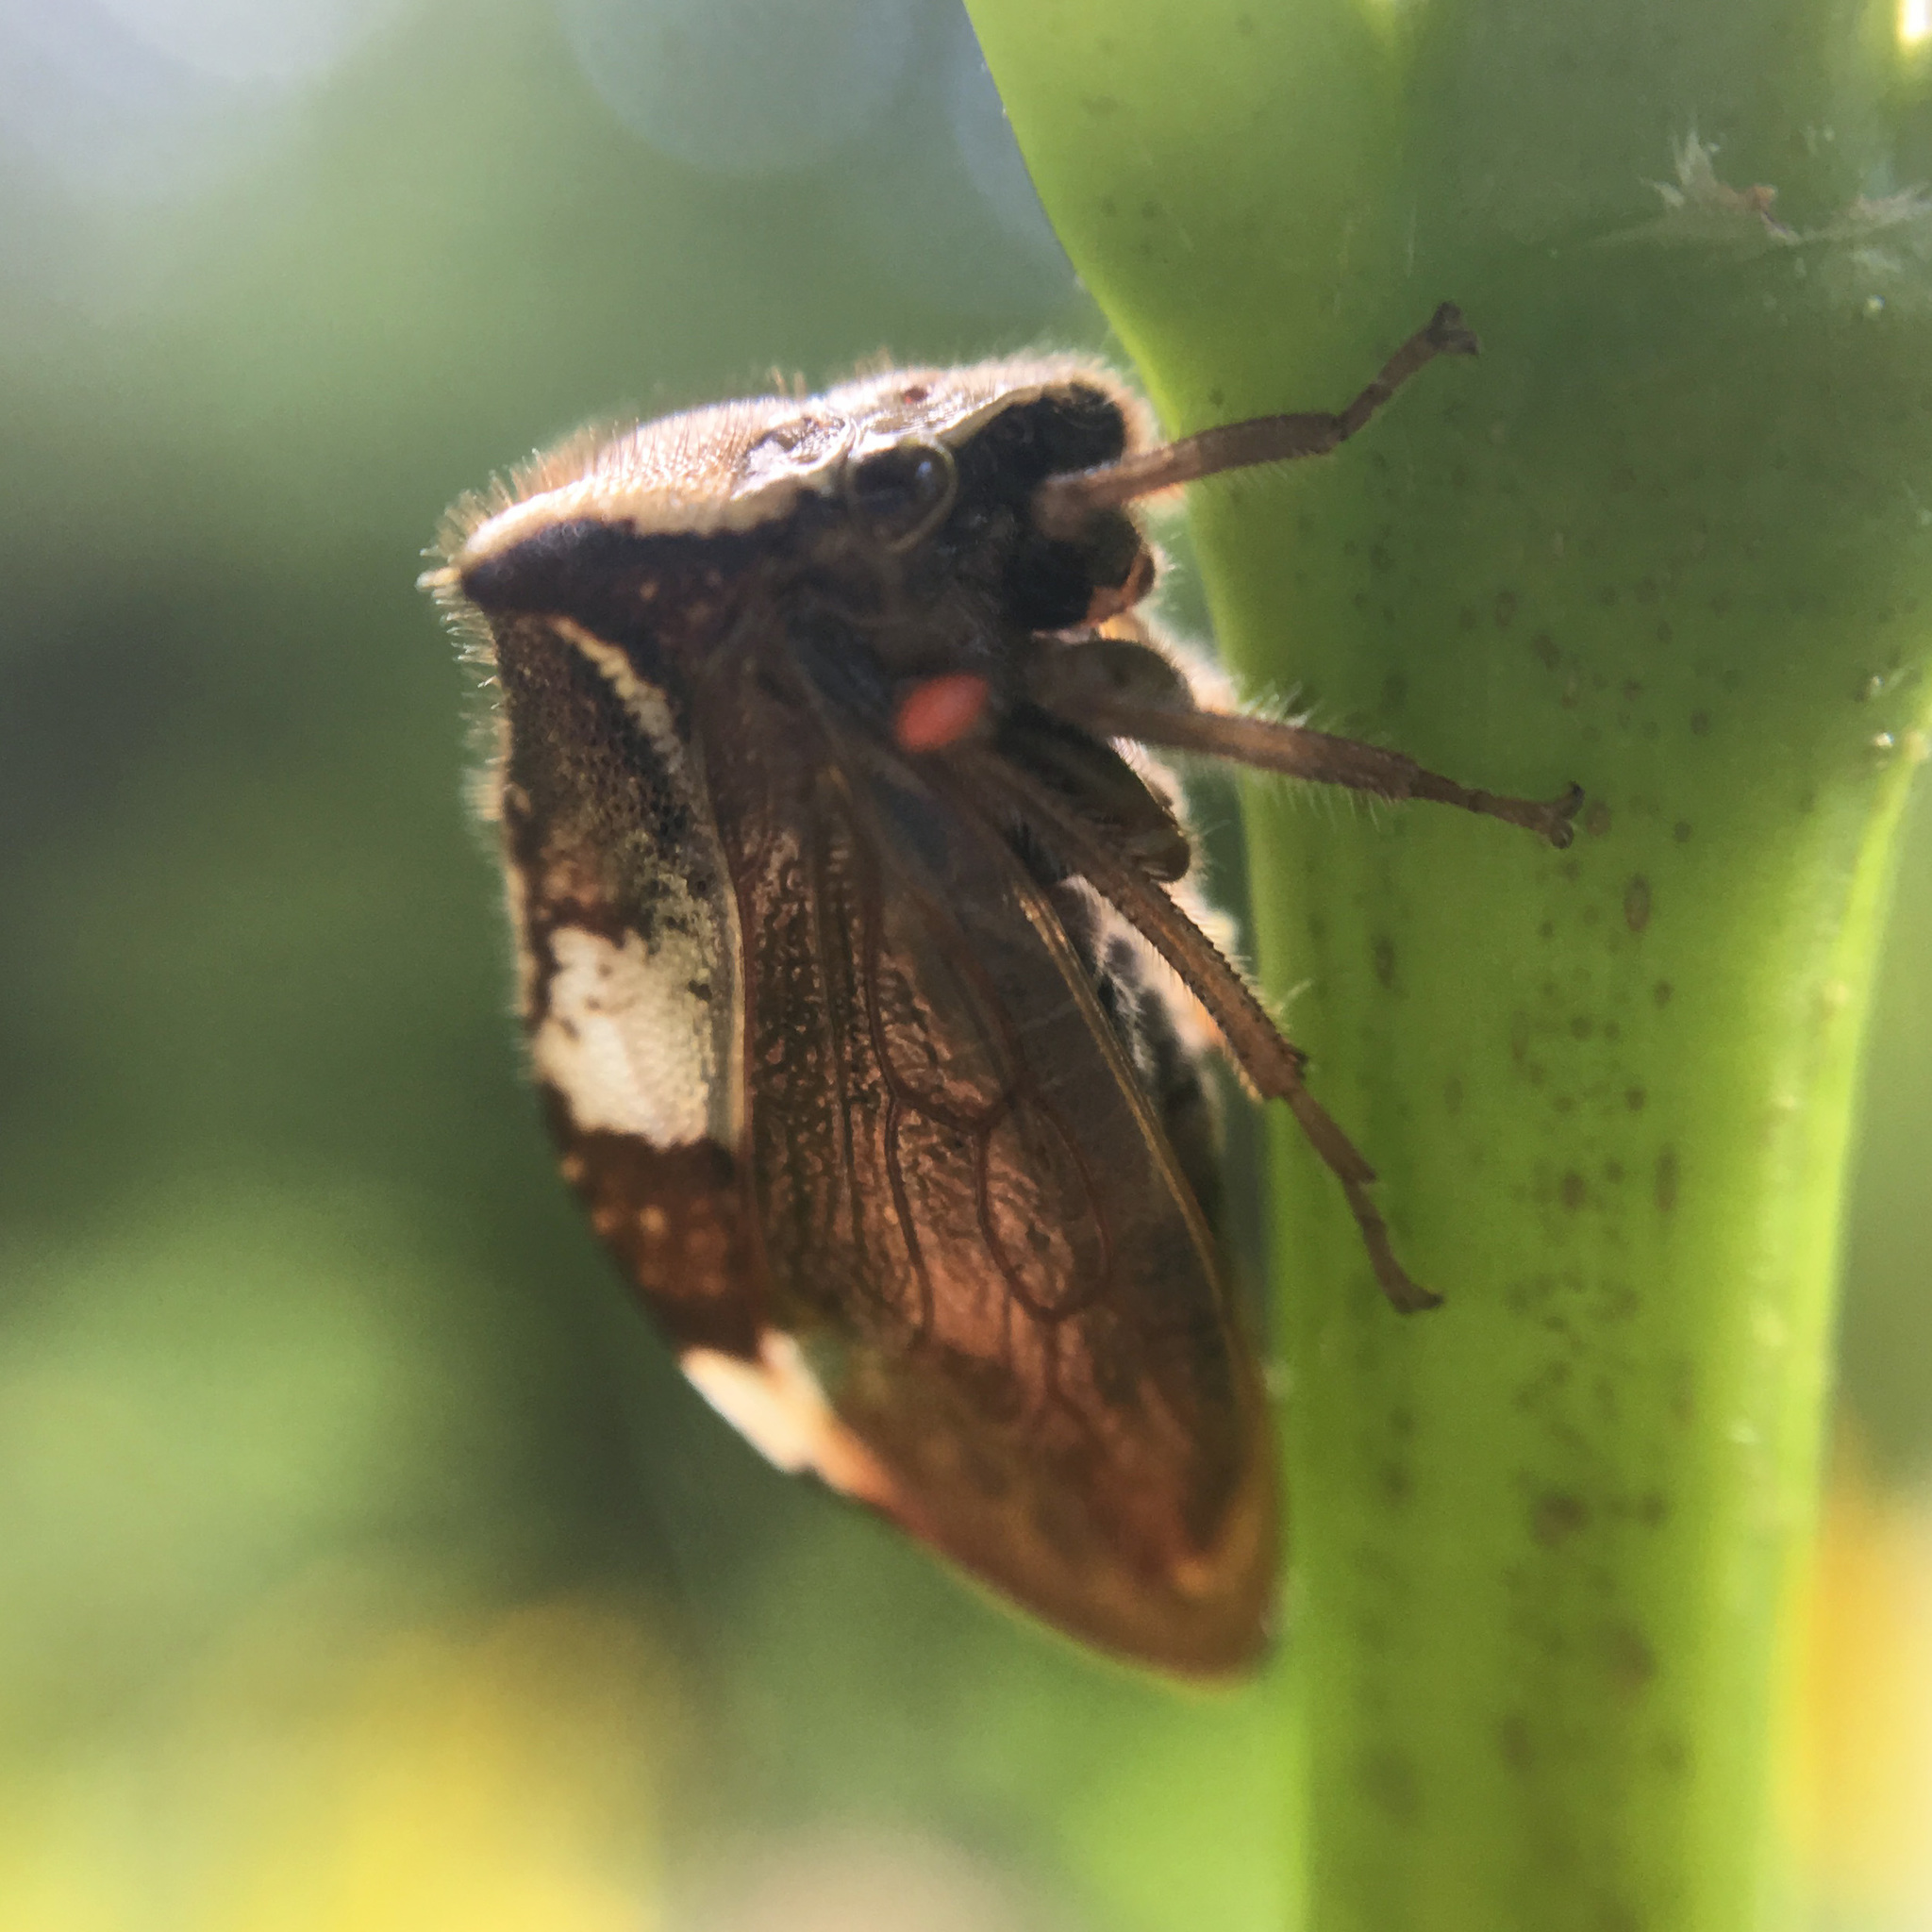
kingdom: Animalia
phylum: Arthropoda
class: Insecta
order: Hemiptera
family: Membracidae
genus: Stictocephala
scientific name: Stictocephala diceros
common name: Two-horned treehopper
